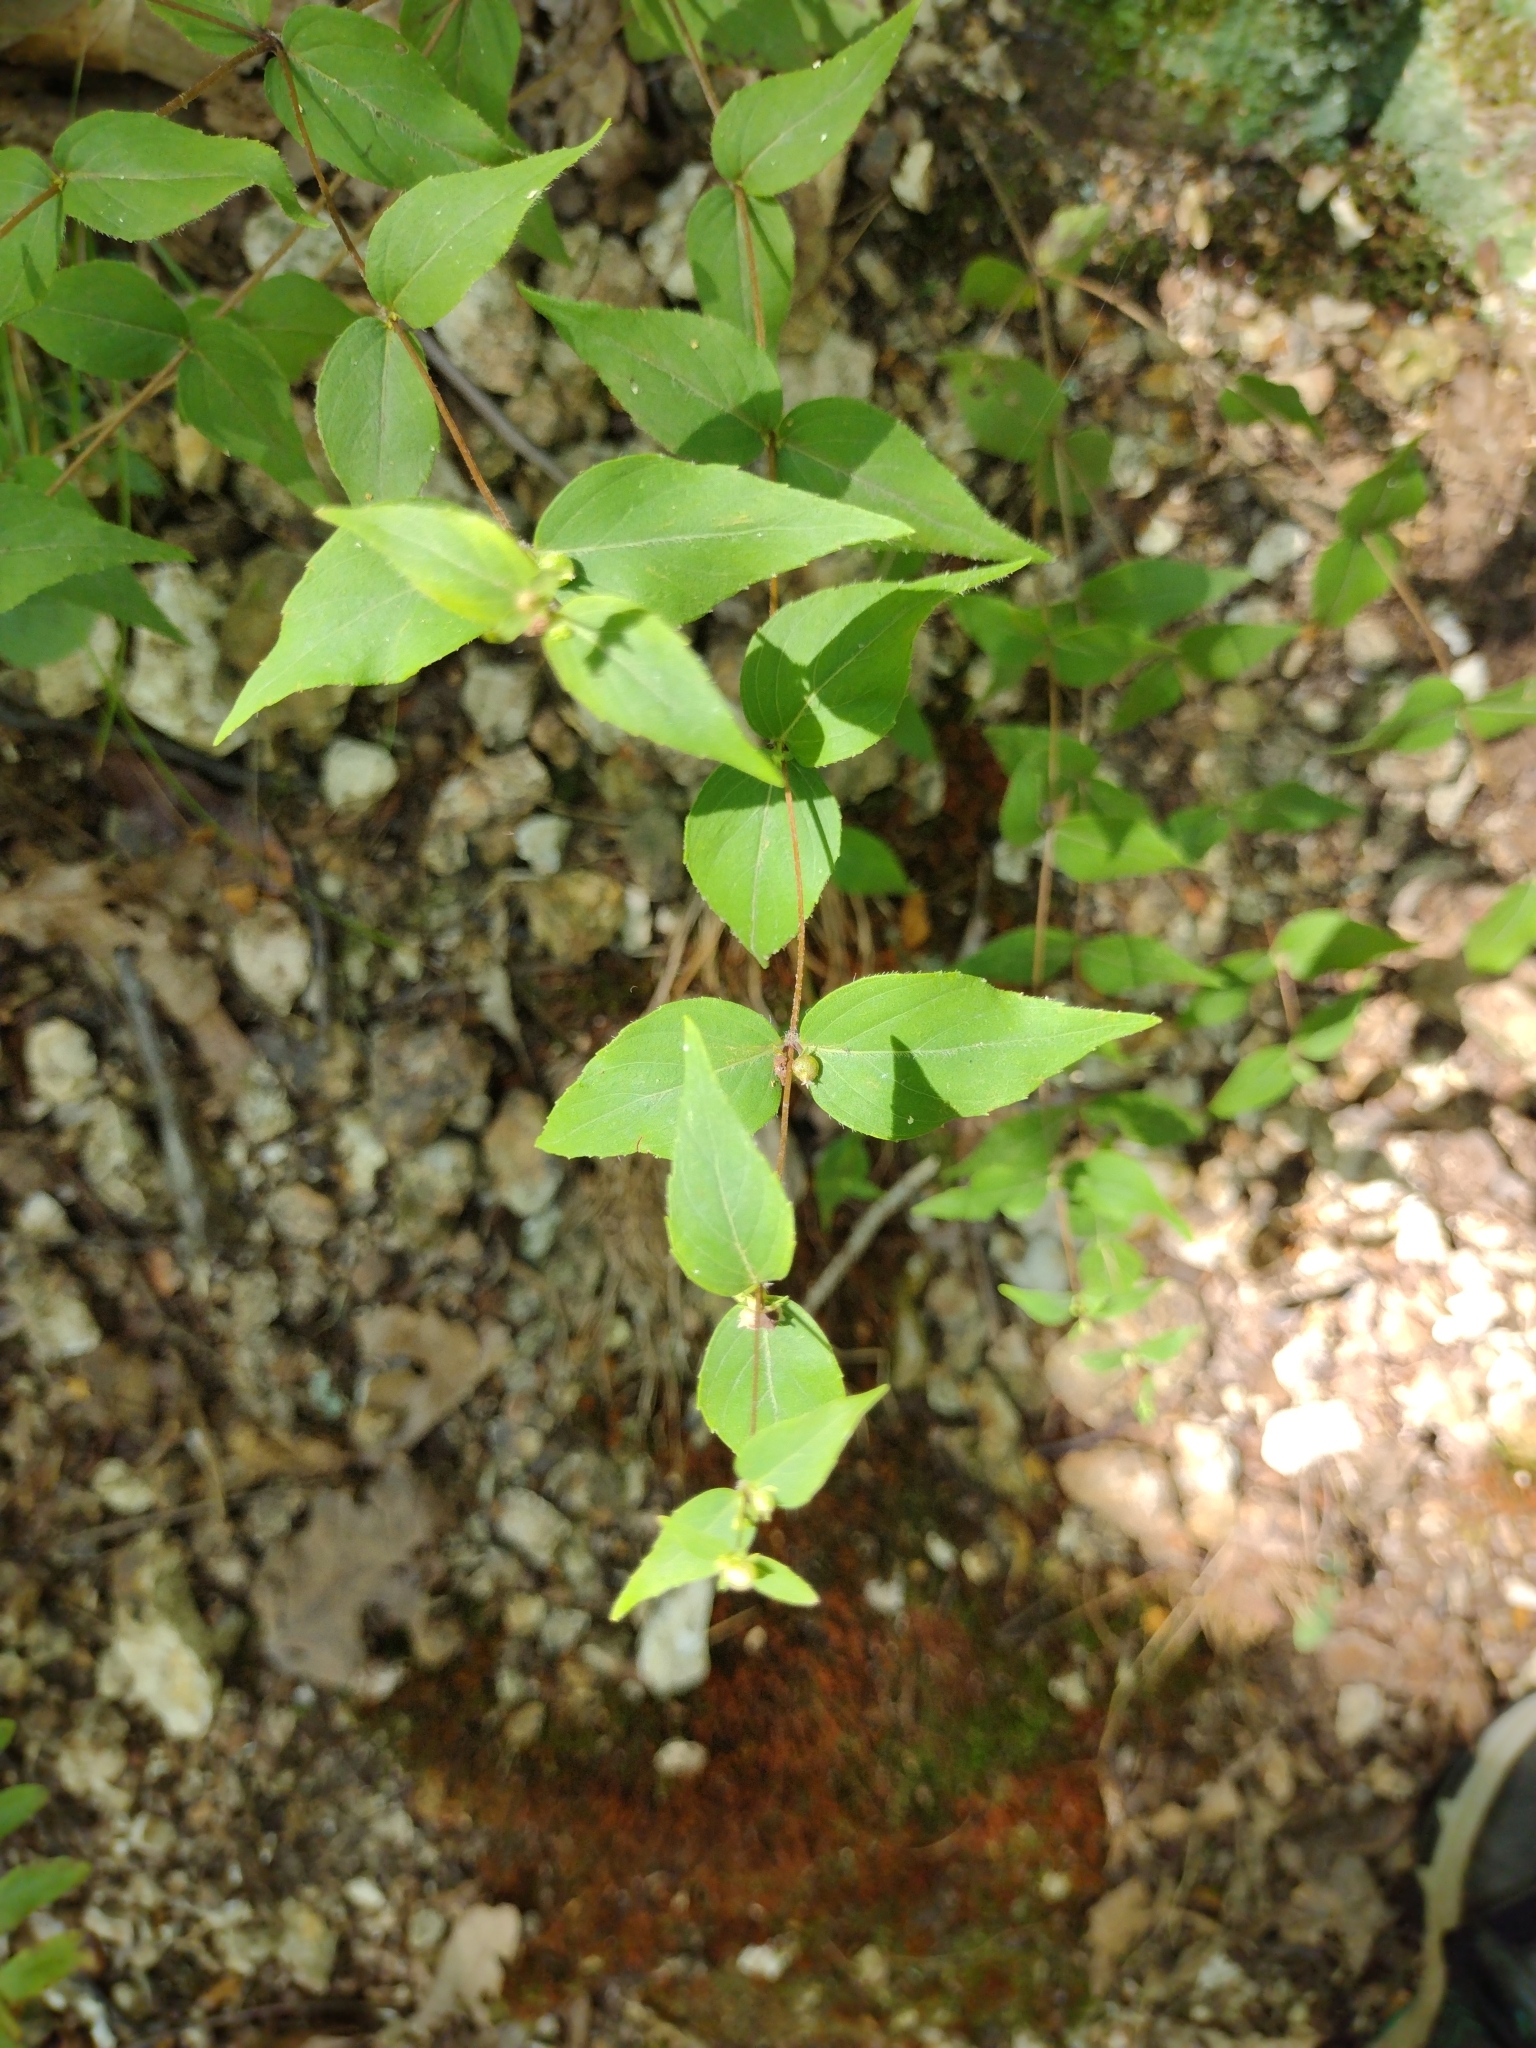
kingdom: Plantae
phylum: Tracheophyta
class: Magnoliopsida
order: Lamiales
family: Lamiaceae
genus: Cunila
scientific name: Cunila origanoides
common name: American dittany
